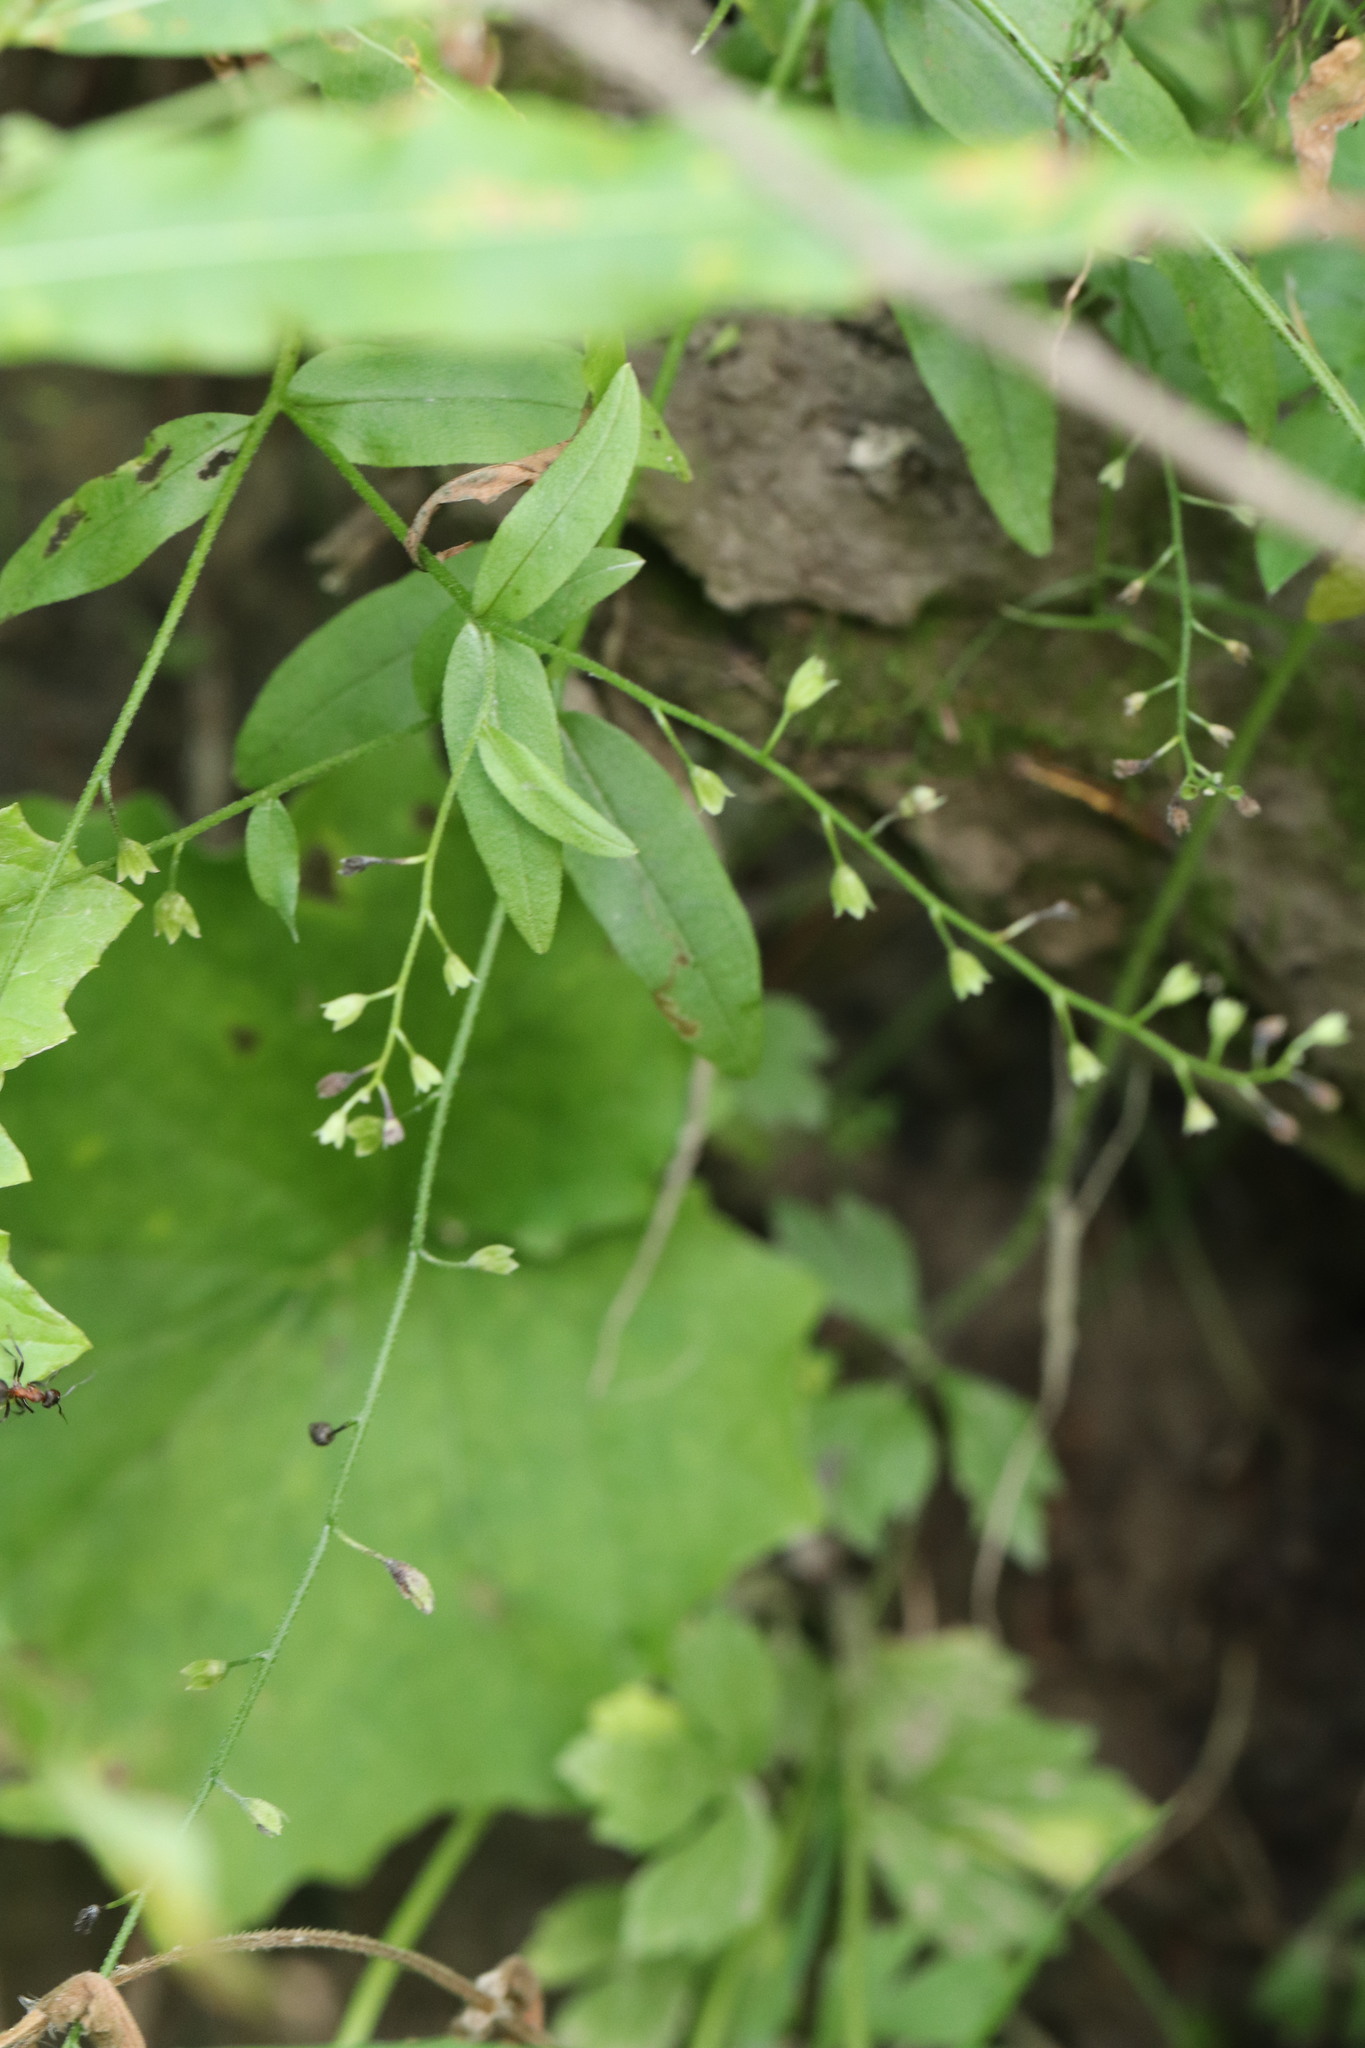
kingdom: Plantae
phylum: Tracheophyta
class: Magnoliopsida
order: Boraginales
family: Boraginaceae
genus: Myosotis
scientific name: Myosotis scorpioides
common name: Water forget-me-not
